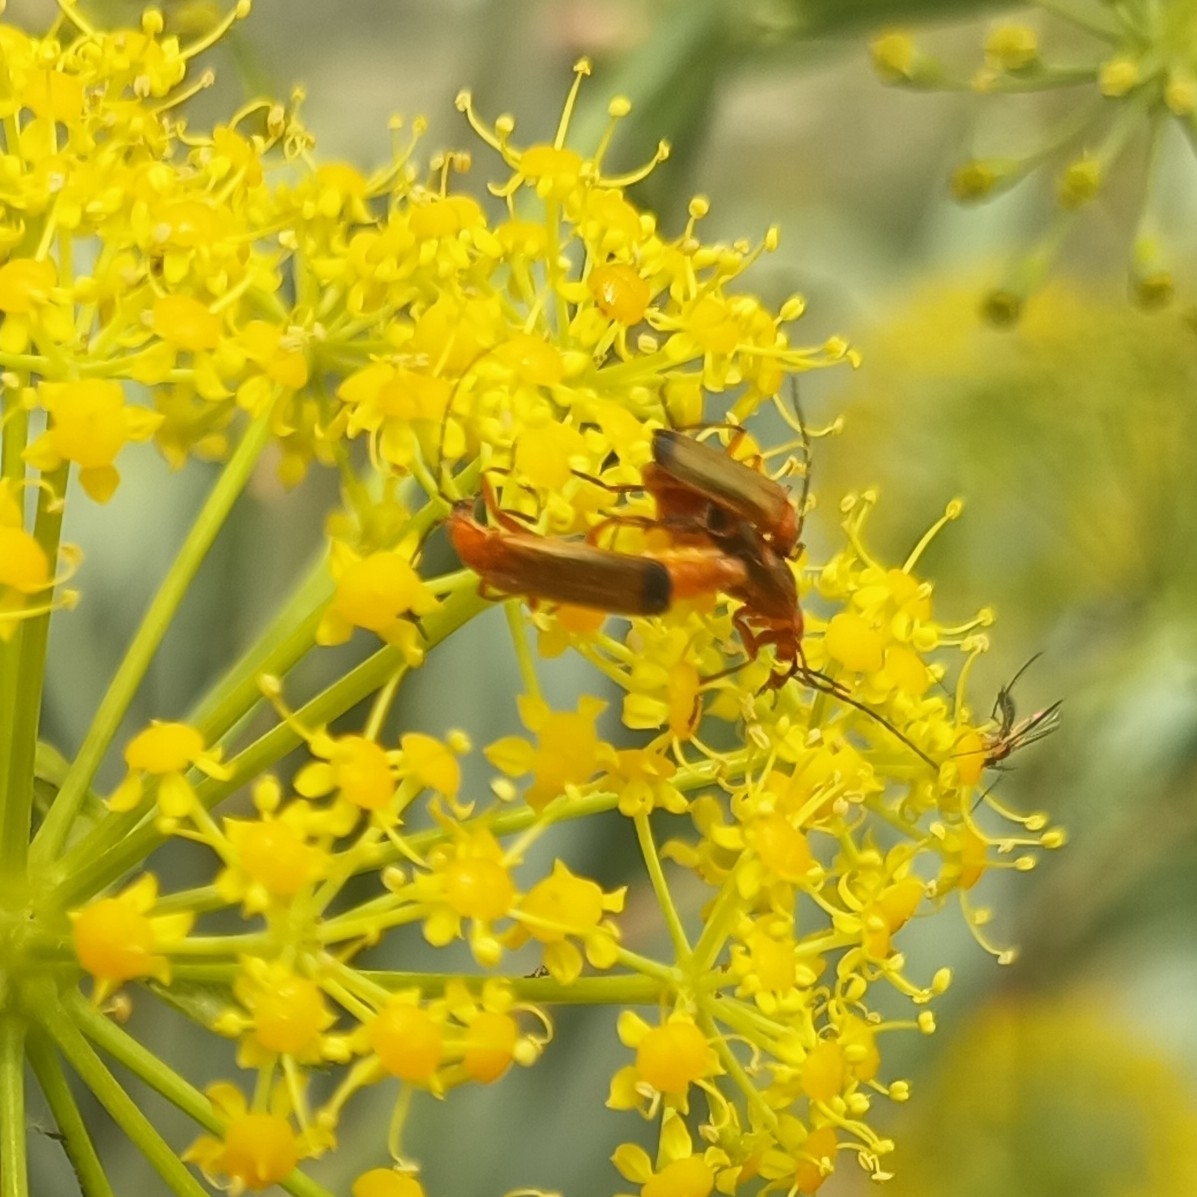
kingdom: Animalia
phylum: Arthropoda
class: Insecta
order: Coleoptera
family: Cantharidae
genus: Rhagonycha
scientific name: Rhagonycha fulva
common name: Common red soldier beetle
